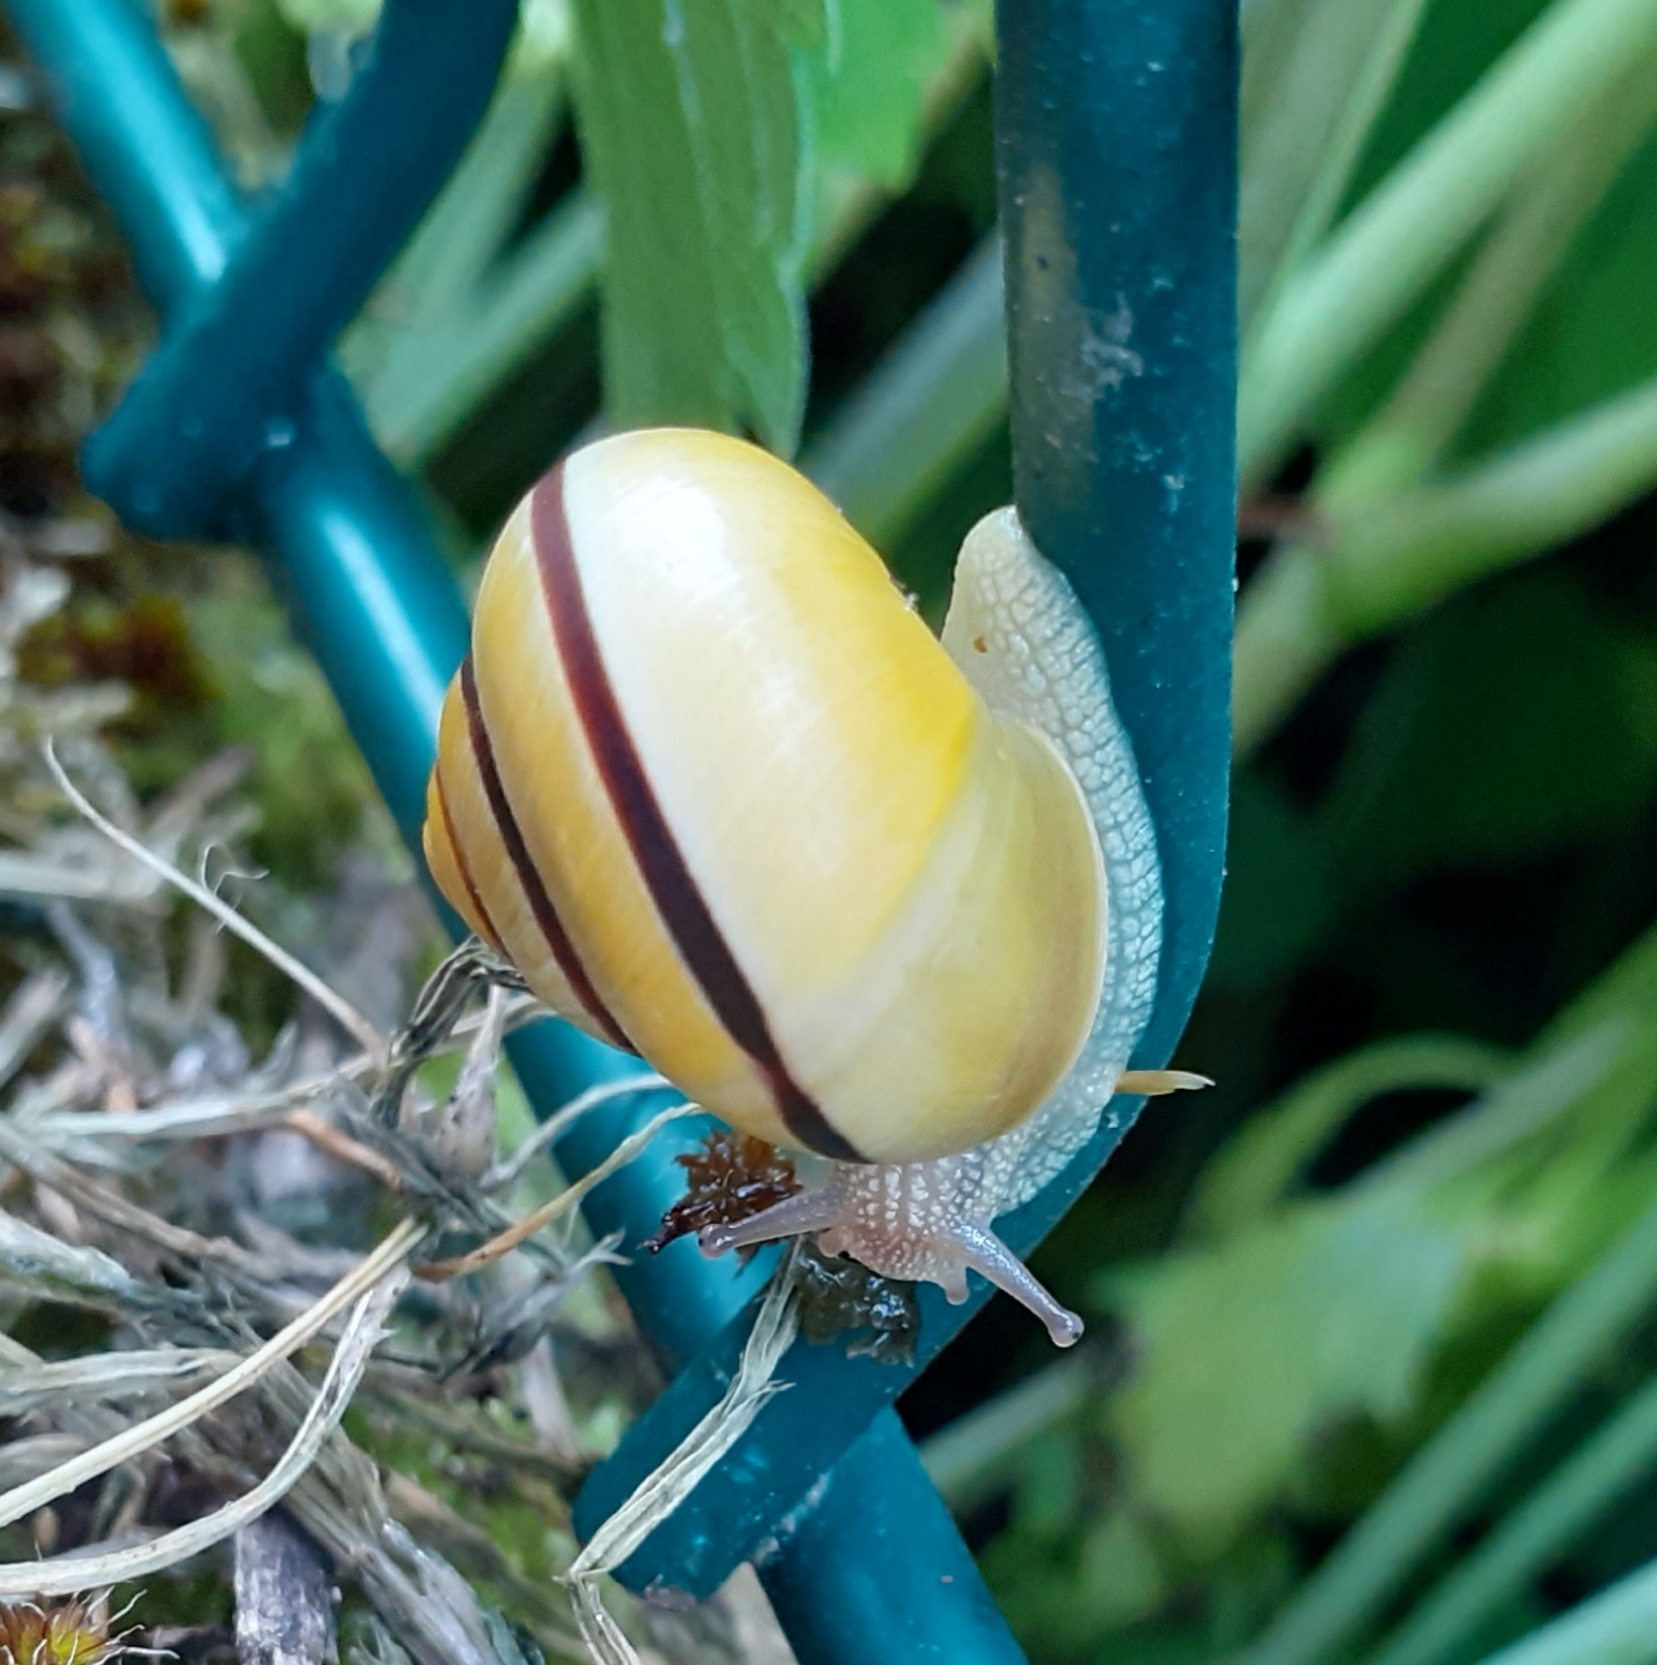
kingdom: Animalia
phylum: Mollusca
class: Gastropoda
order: Stylommatophora
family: Helicidae
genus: Cepaea
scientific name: Cepaea
